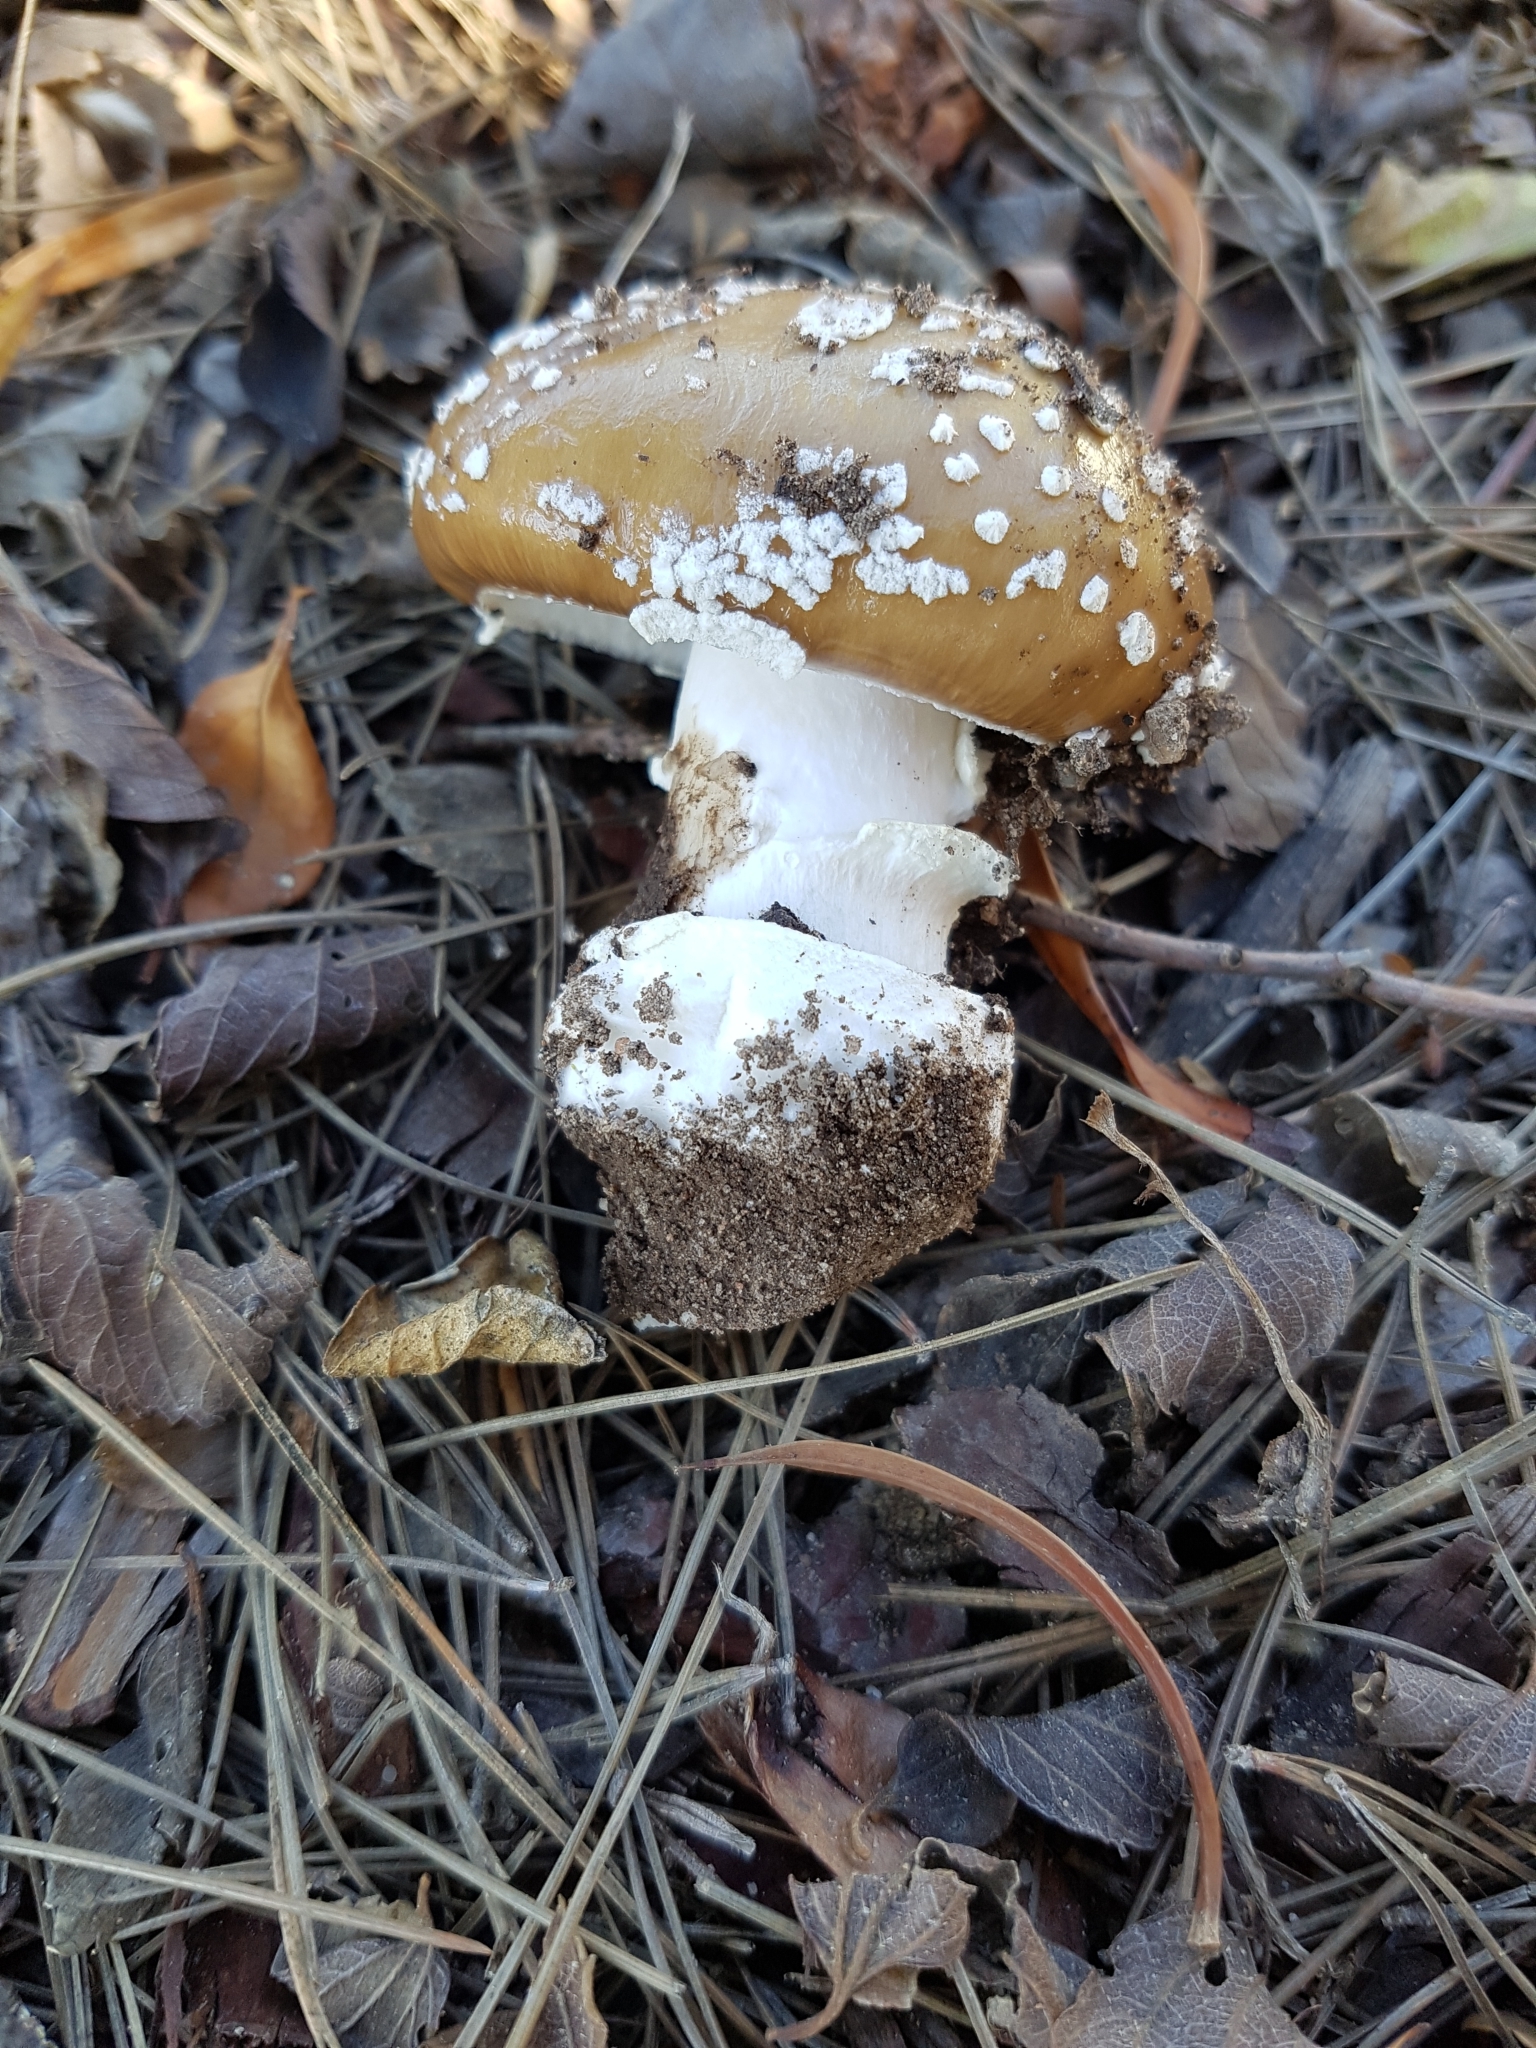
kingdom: Fungi
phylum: Basidiomycota
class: Agaricomycetes
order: Agaricales
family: Amanitaceae
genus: Amanita
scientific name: Amanita pantherina
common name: Panthercap
